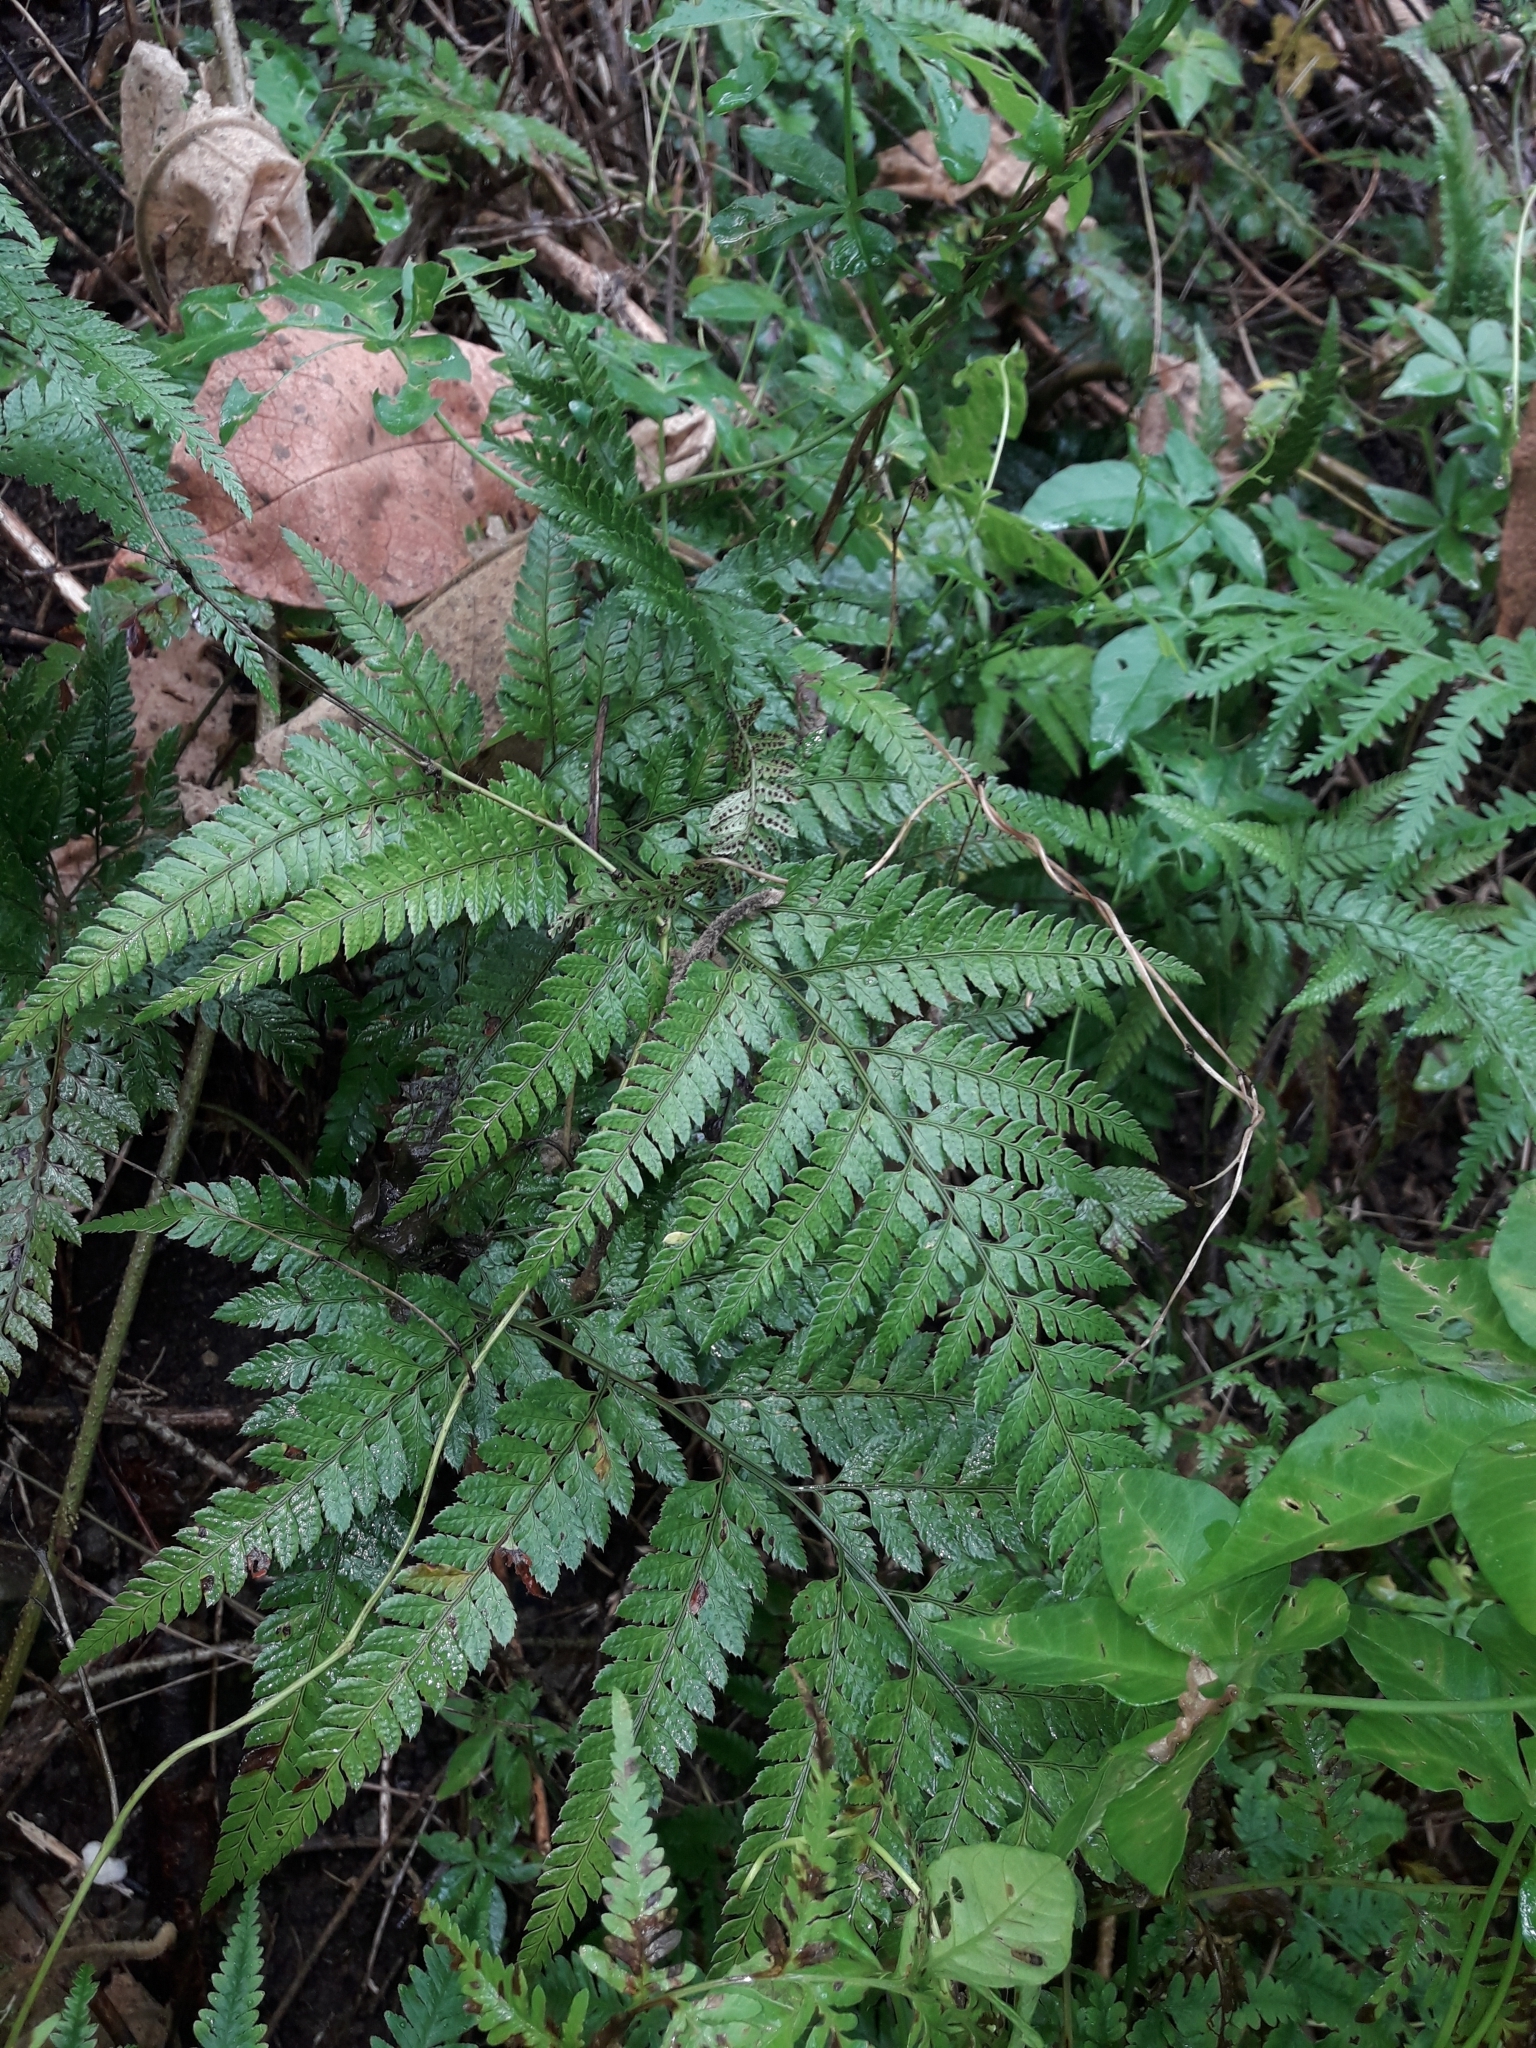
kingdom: Plantae
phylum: Tracheophyta
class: Polypodiopsida
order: Polypodiales
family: Dryopteridaceae
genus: Arachniodes
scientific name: Arachniodes aristata
